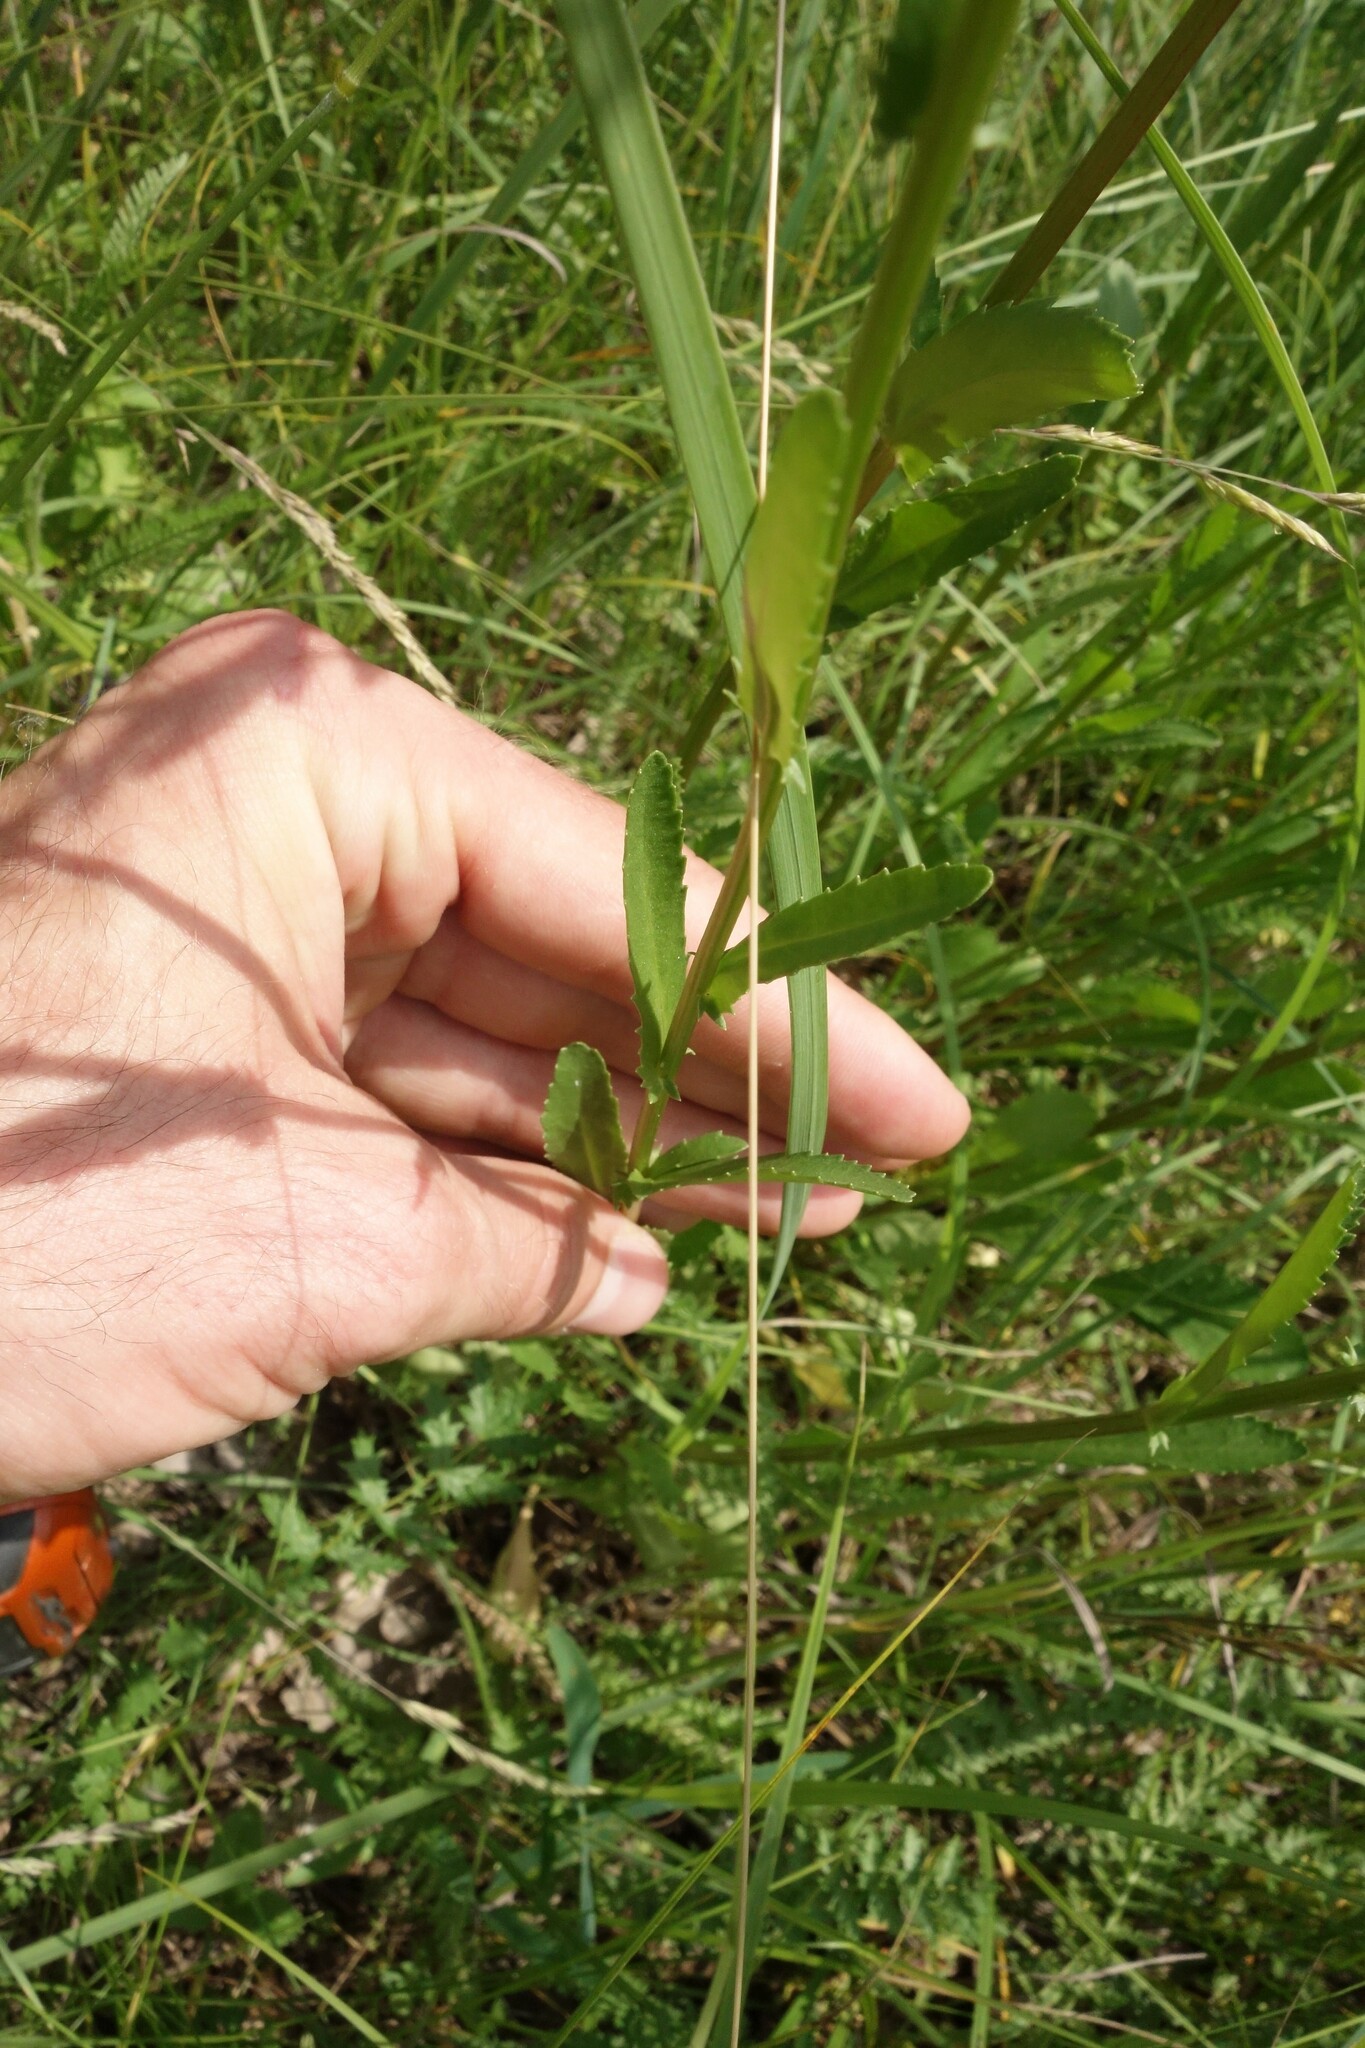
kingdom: Plantae
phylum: Tracheophyta
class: Magnoliopsida
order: Asterales
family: Asteraceae
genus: Leucanthemum
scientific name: Leucanthemum vulgare
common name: Oxeye daisy
